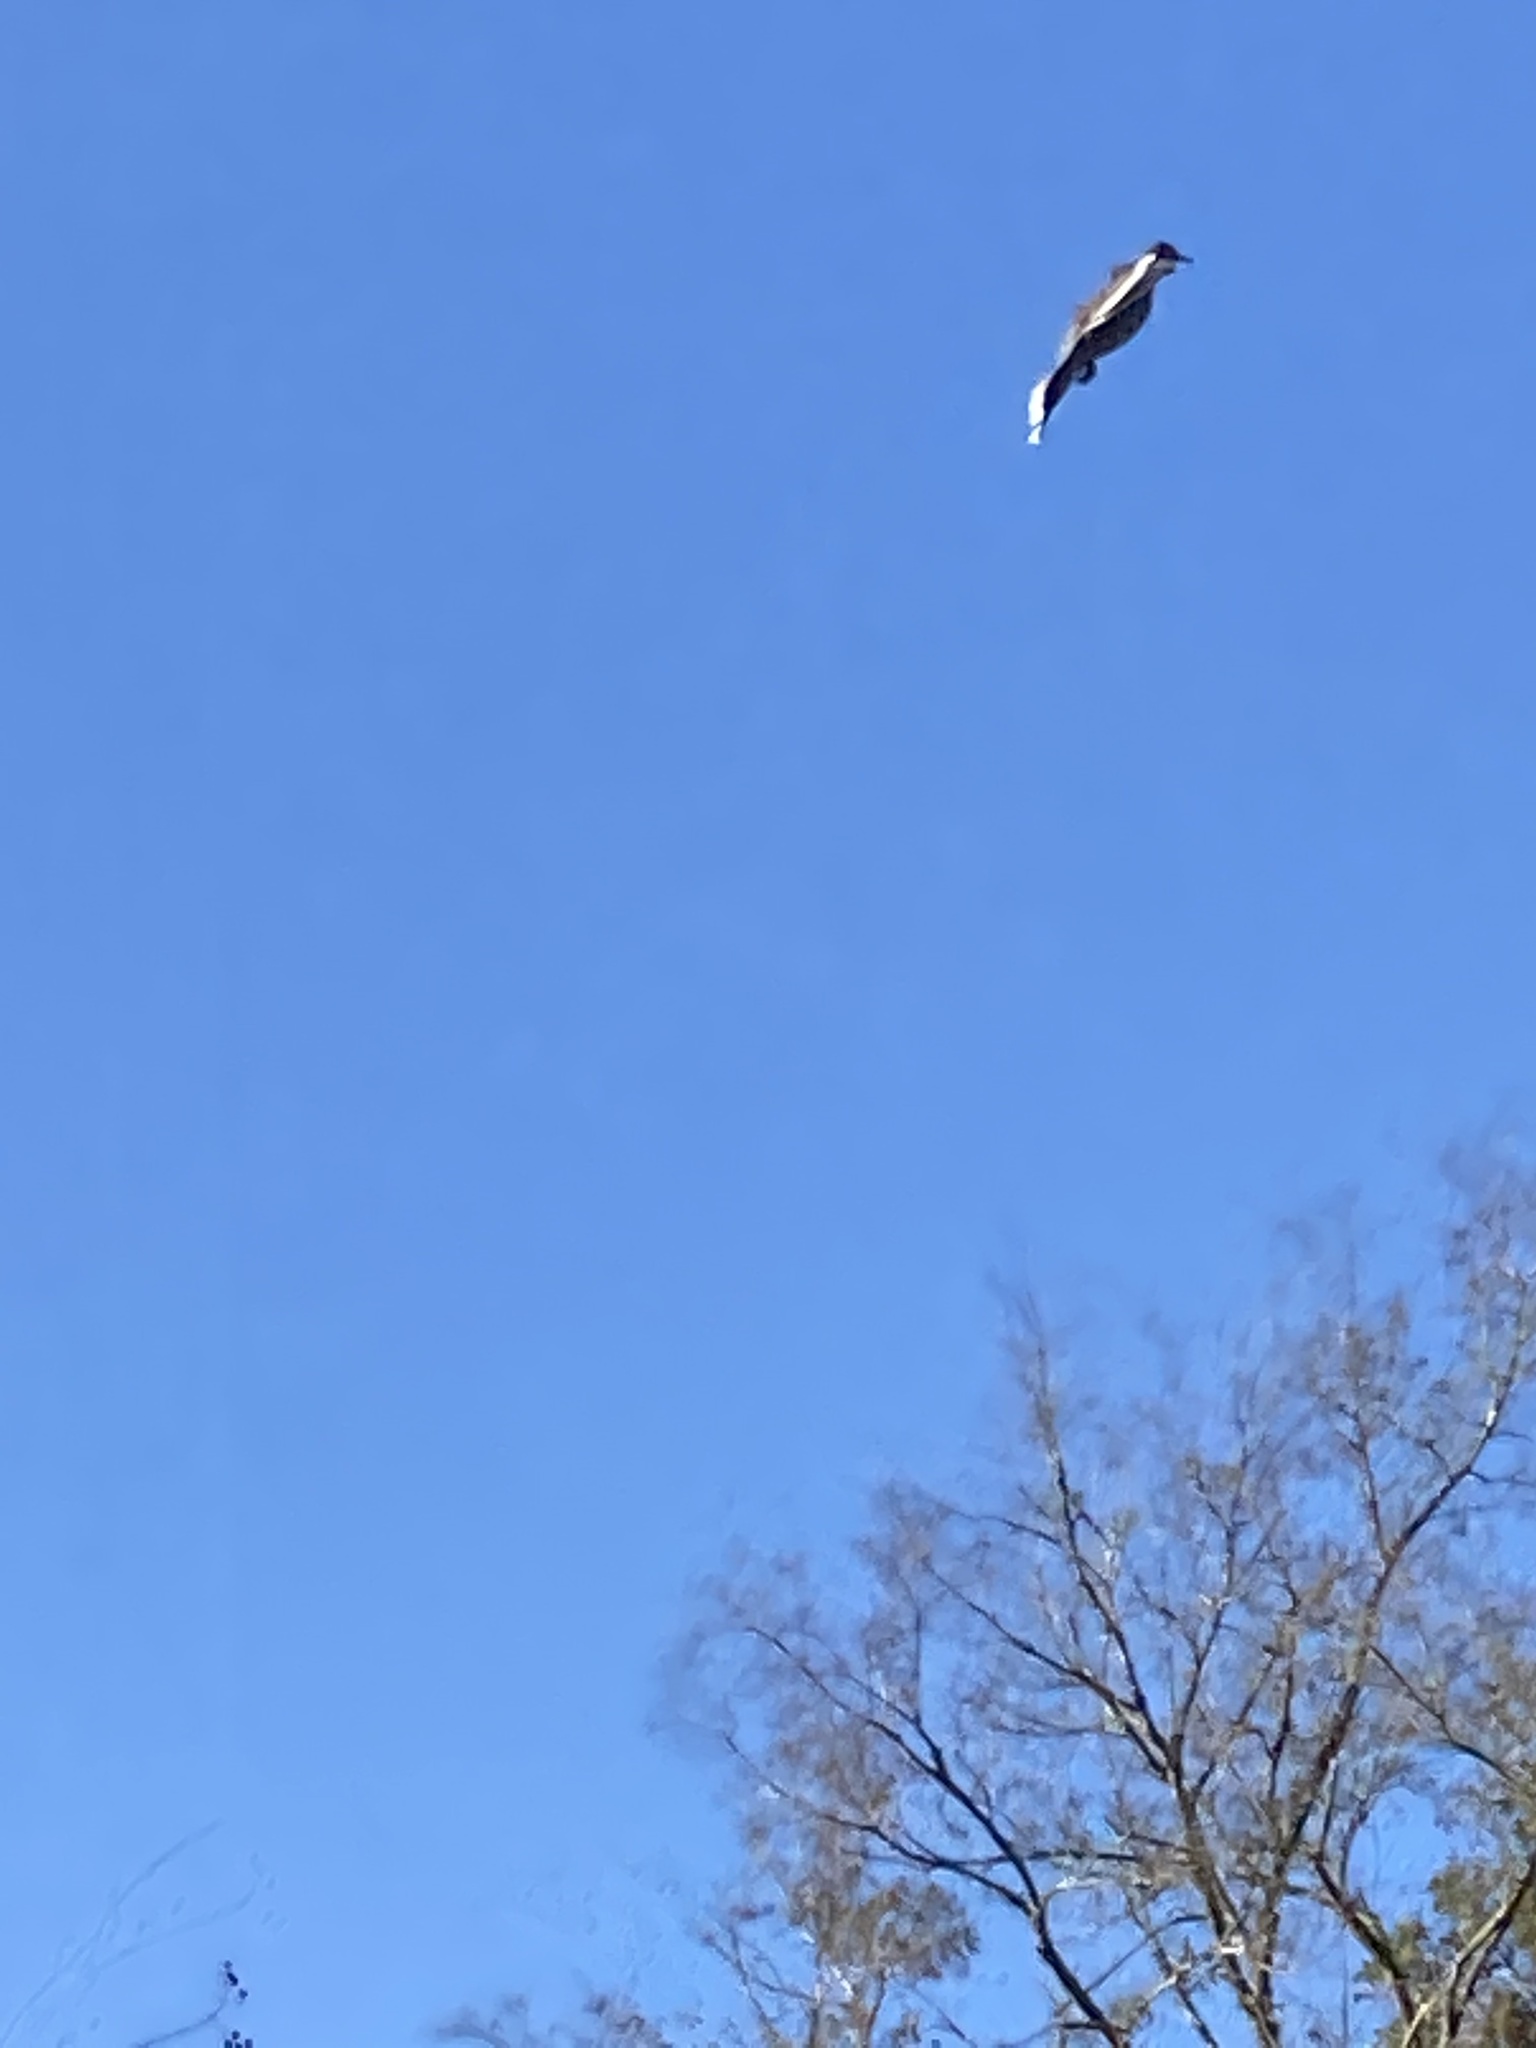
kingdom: Animalia
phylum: Chordata
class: Aves
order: Passeriformes
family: Mimidae
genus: Mimus
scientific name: Mimus polyglottos
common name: Northern mockingbird
